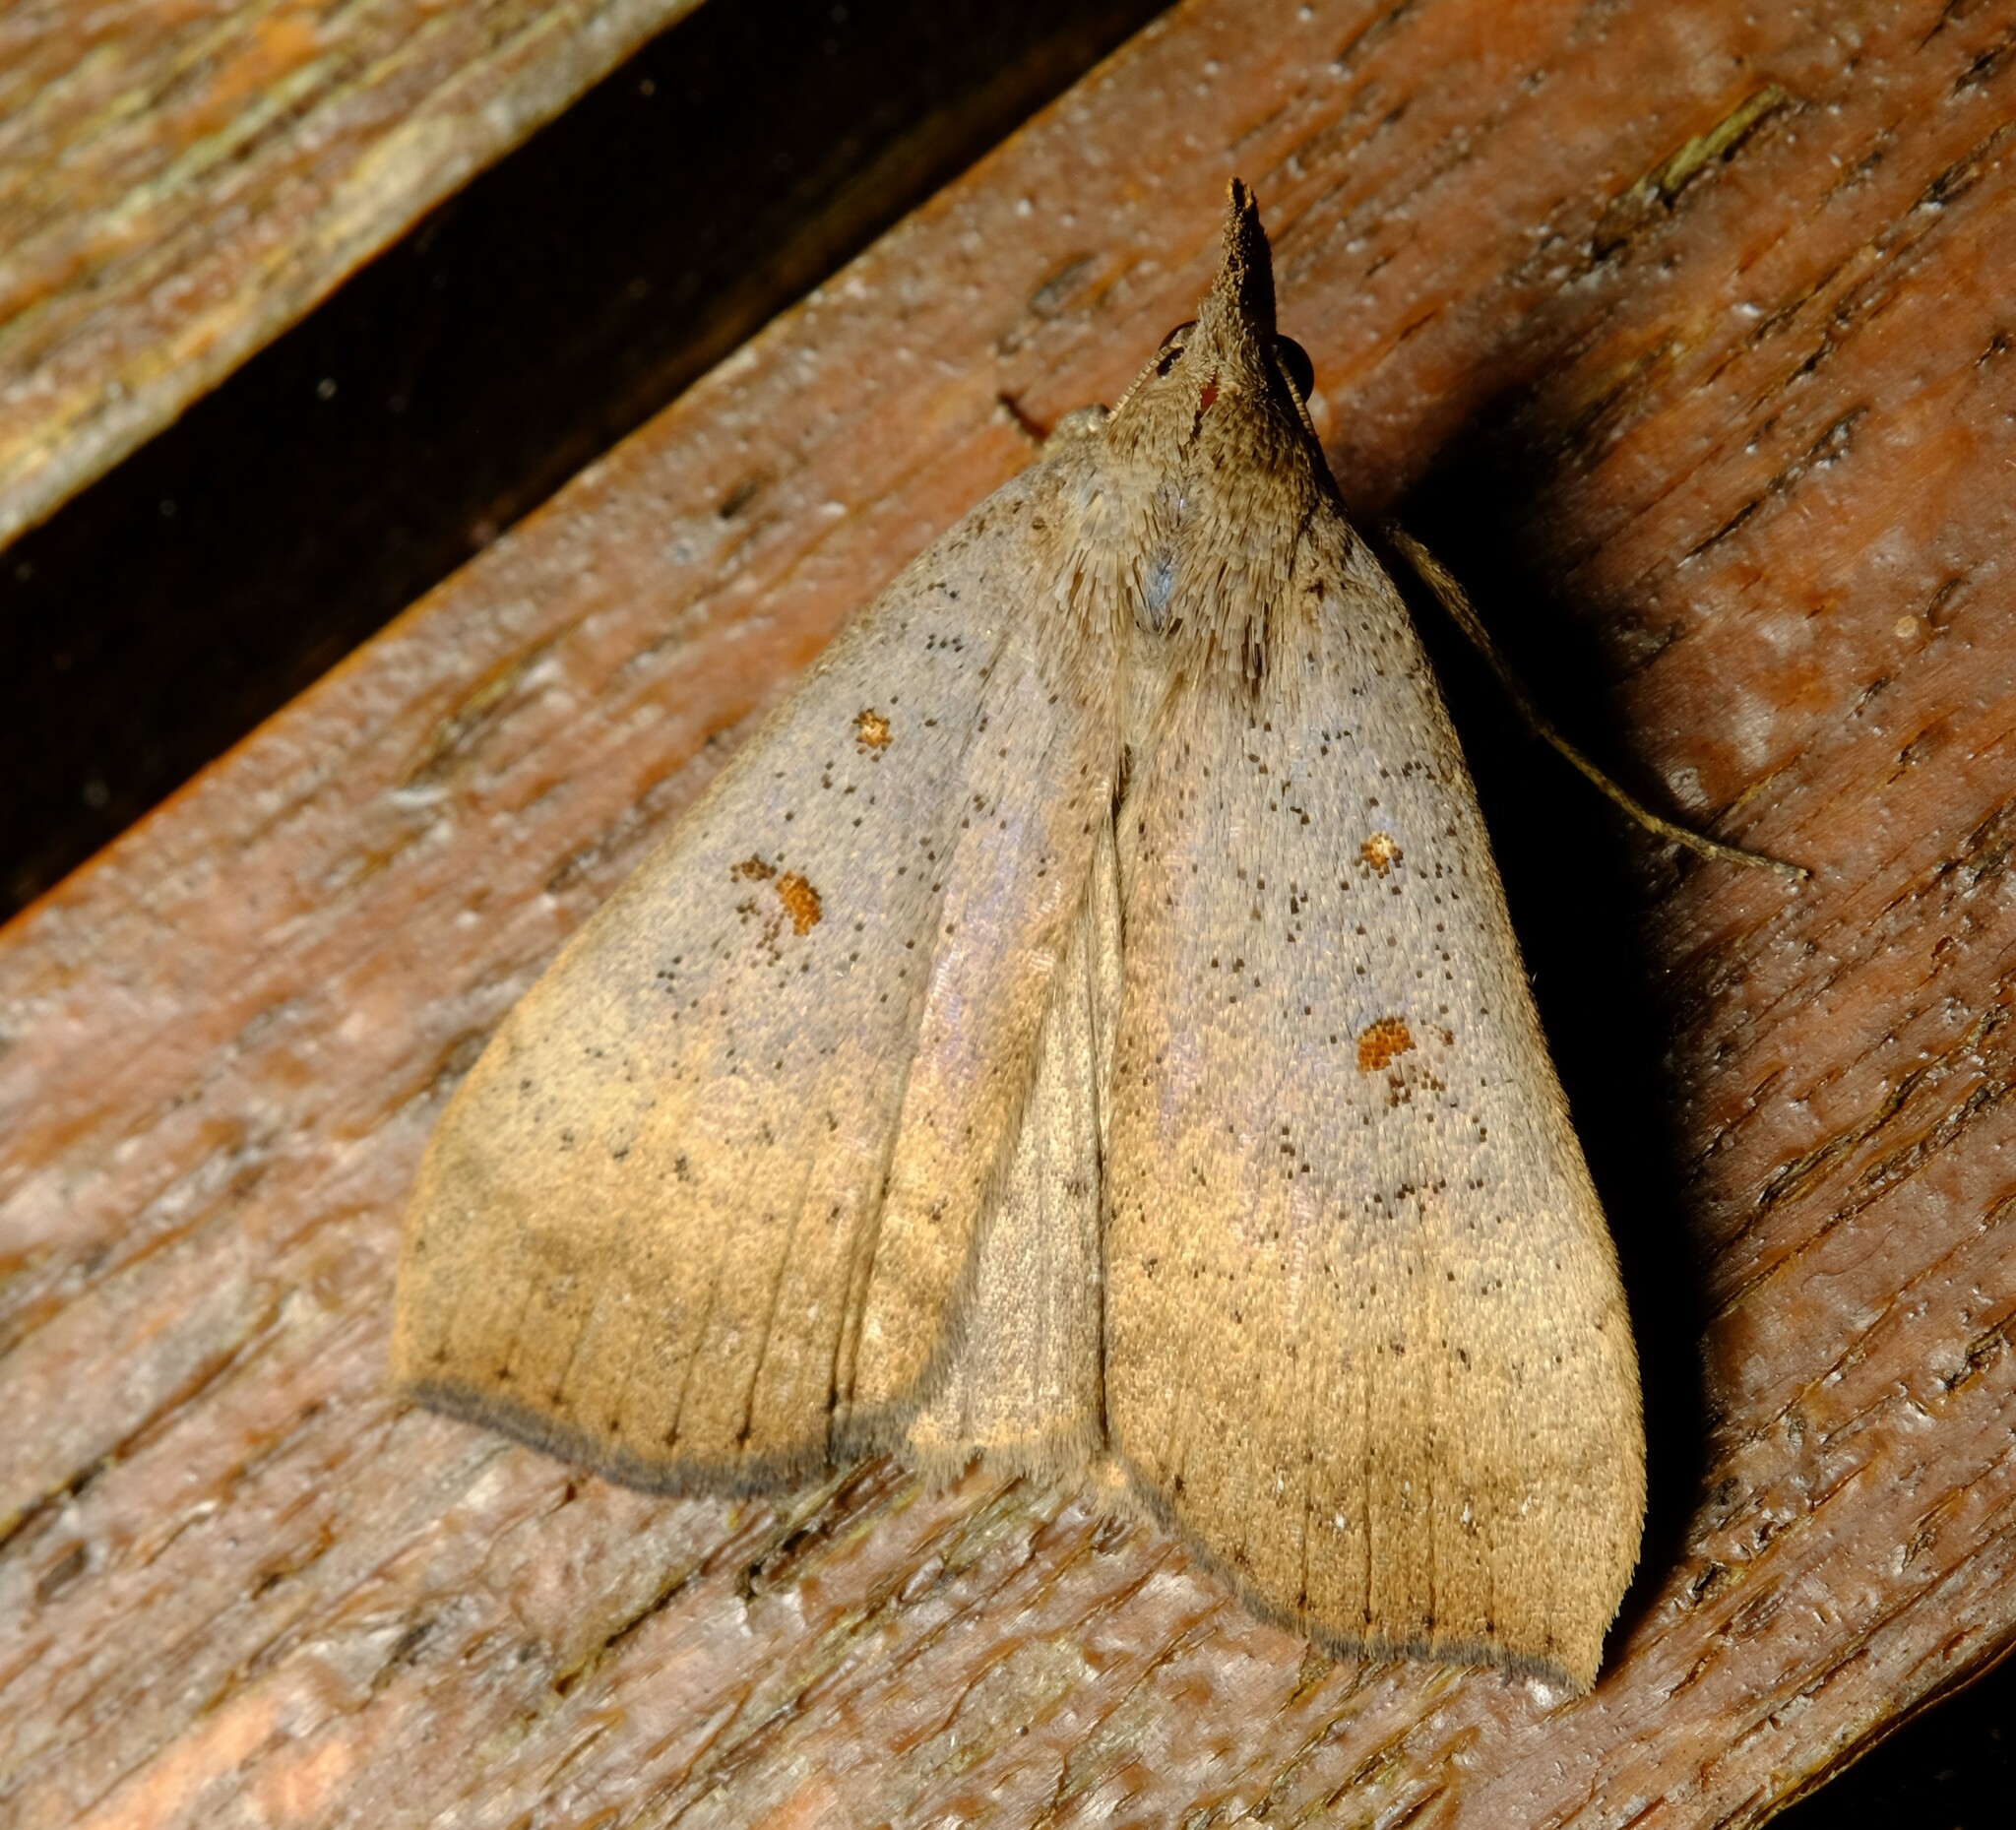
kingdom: Animalia
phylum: Arthropoda
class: Insecta
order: Lepidoptera
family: Erebidae
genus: Rhapsa
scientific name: Rhapsa suscitatalis
